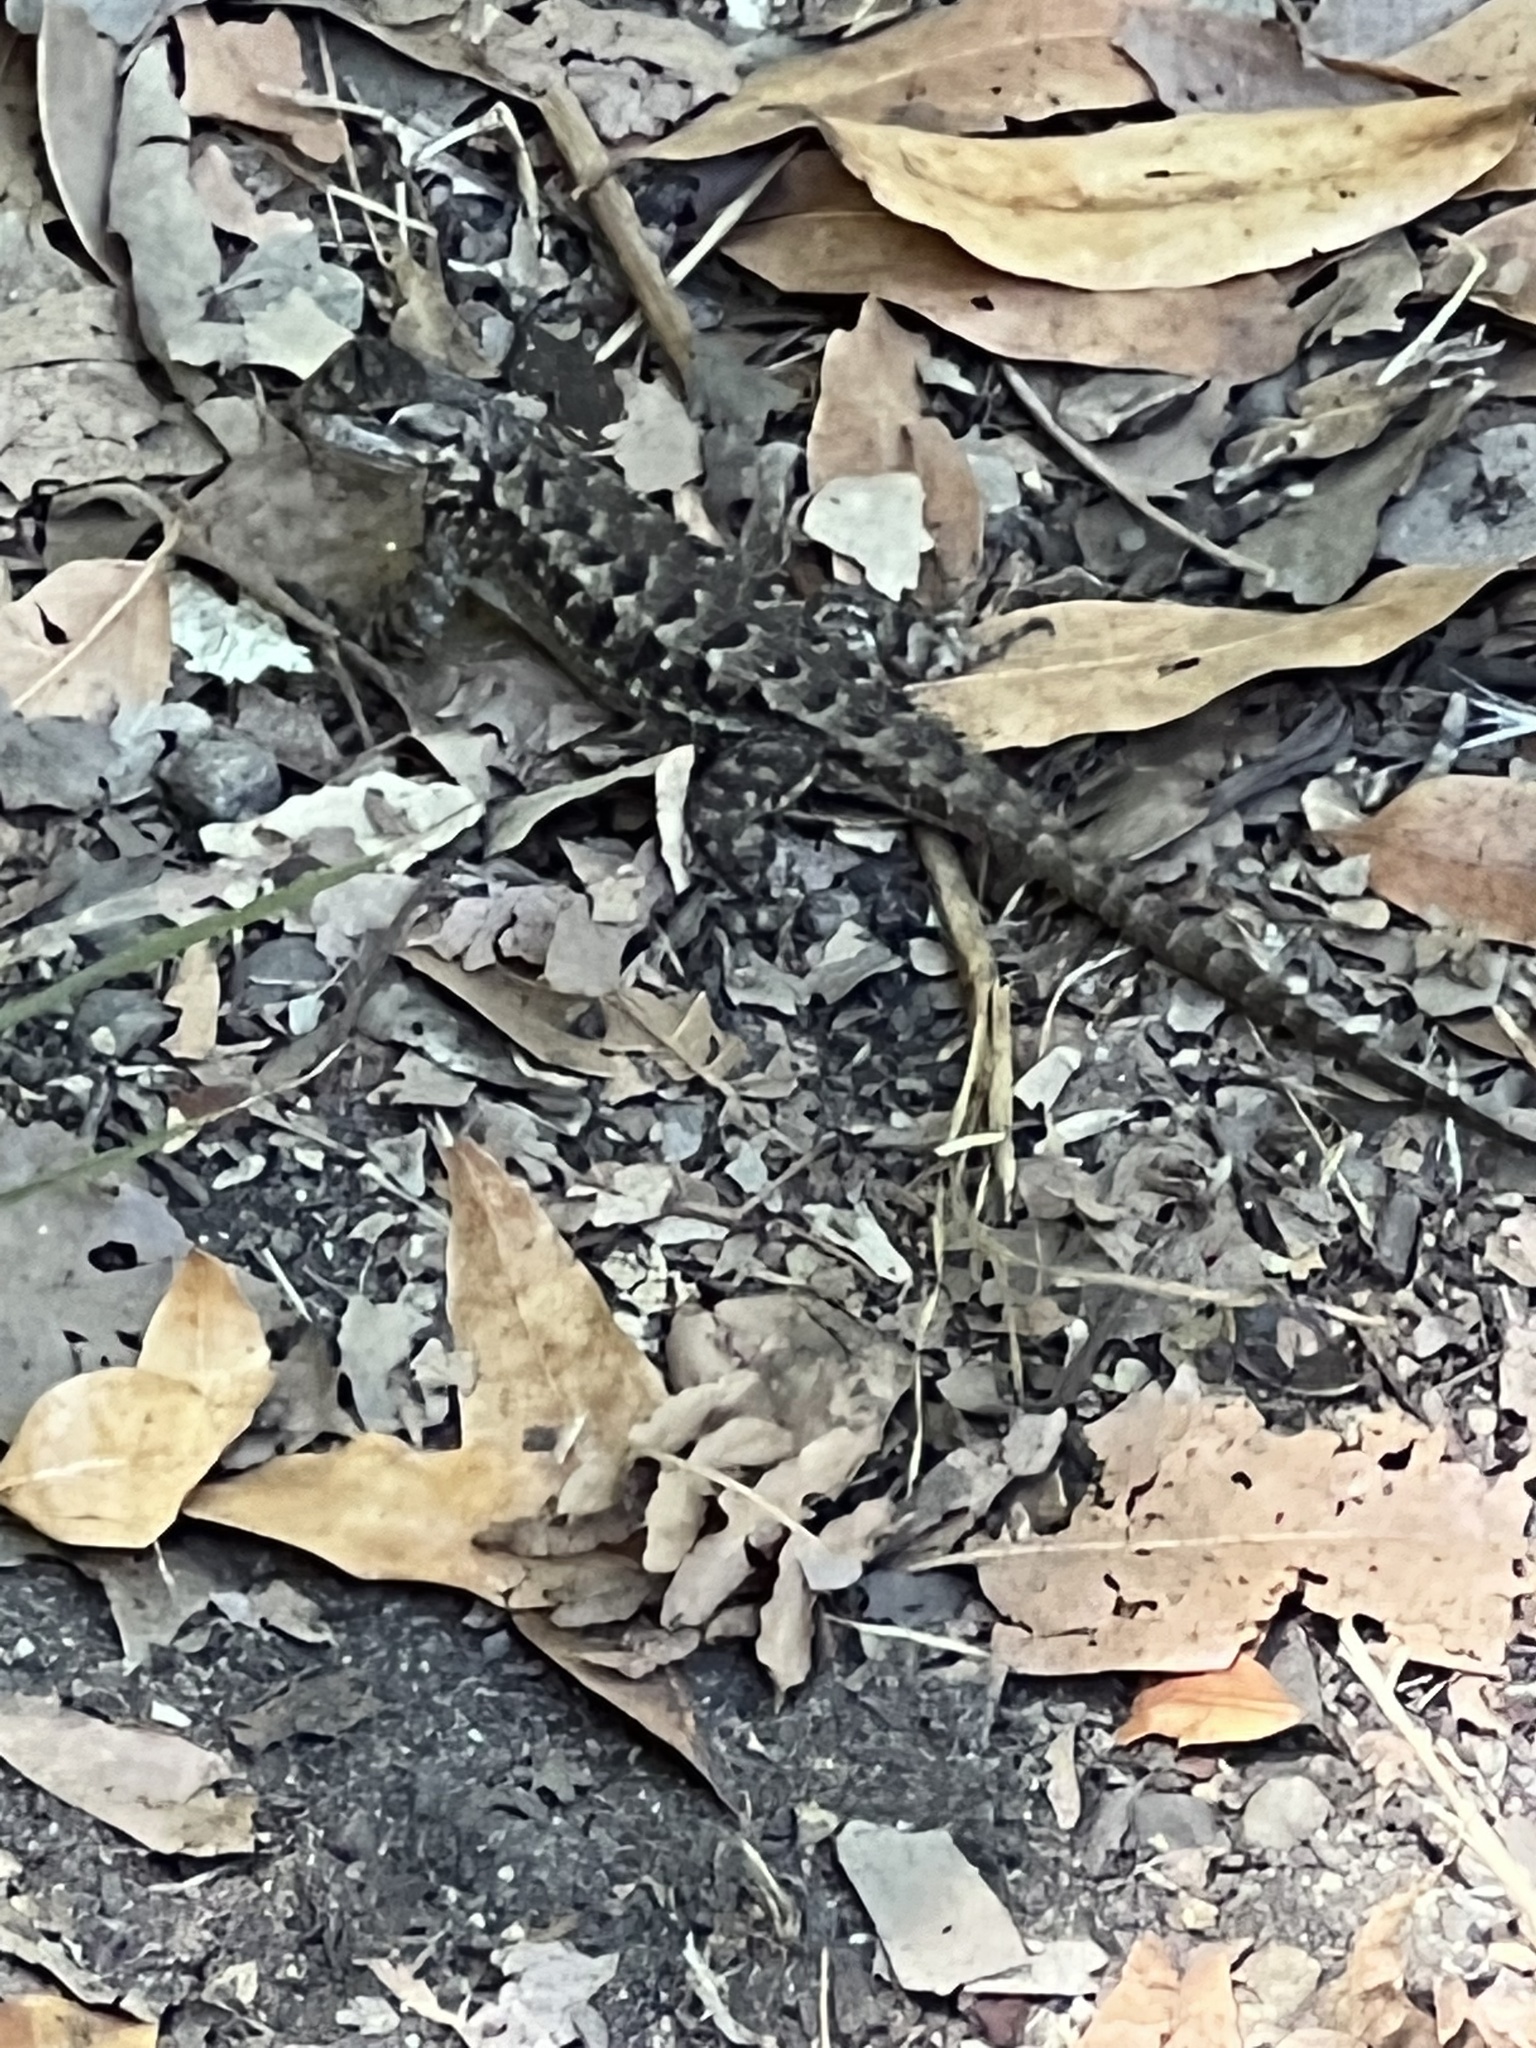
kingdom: Animalia
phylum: Chordata
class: Squamata
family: Phrynosomatidae
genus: Sceloporus
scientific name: Sceloporus occidentalis
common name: Western fence lizard
